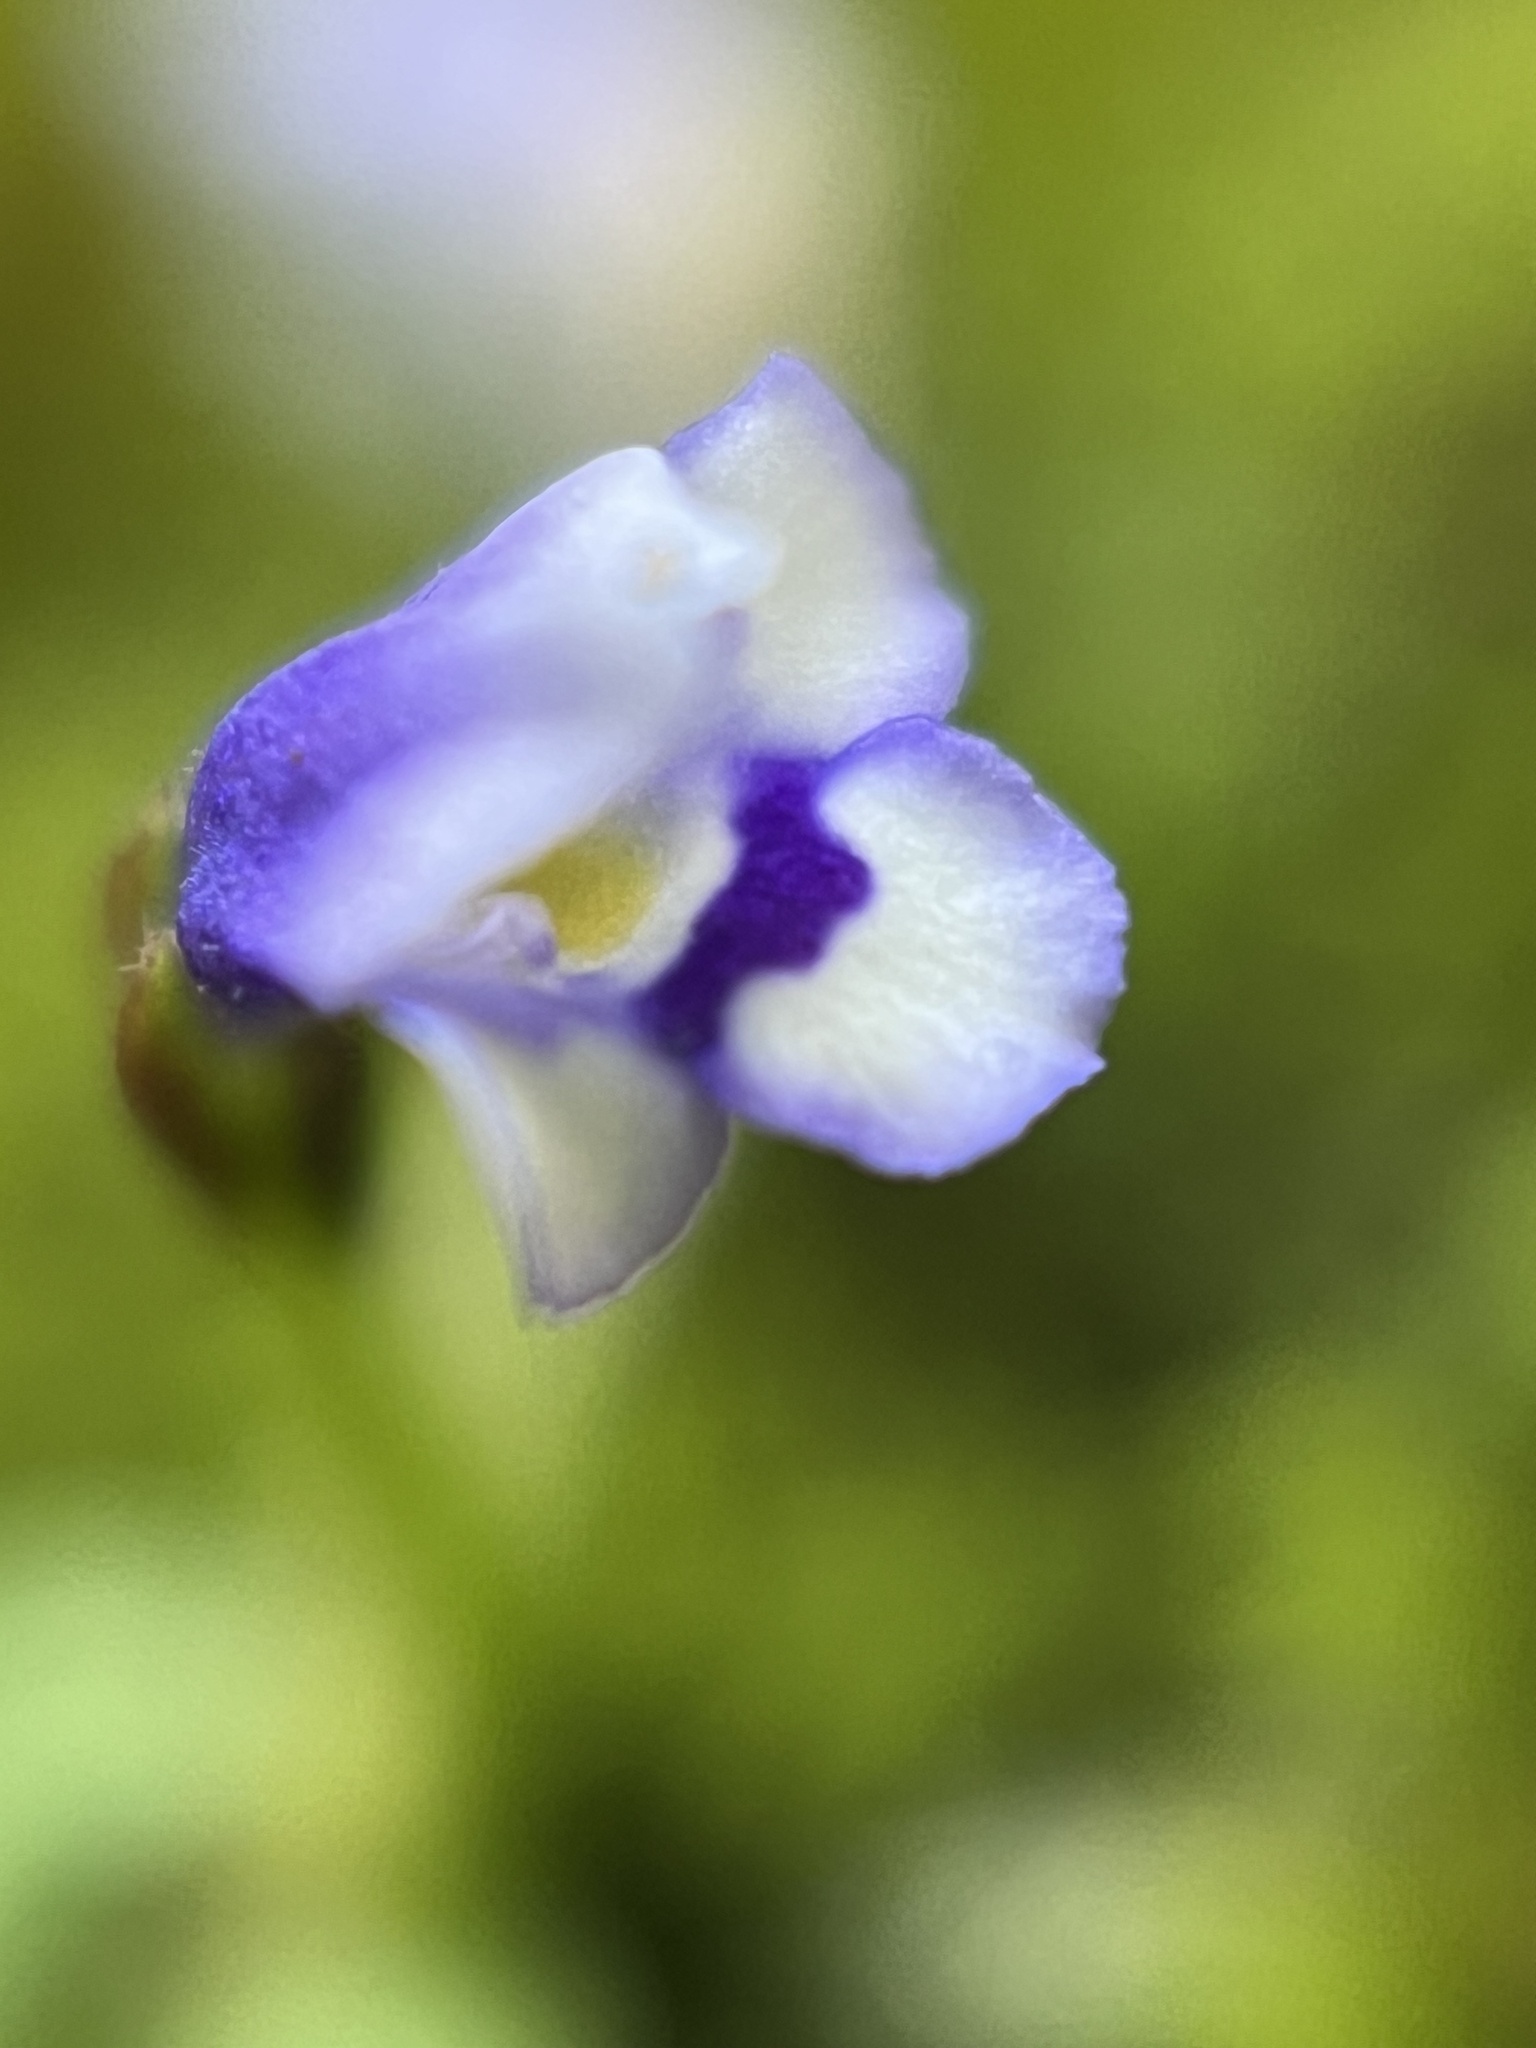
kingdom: Plantae
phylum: Tracheophyta
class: Magnoliopsida
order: Lamiales
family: Linderniaceae
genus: Torenia
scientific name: Torenia crustacea
